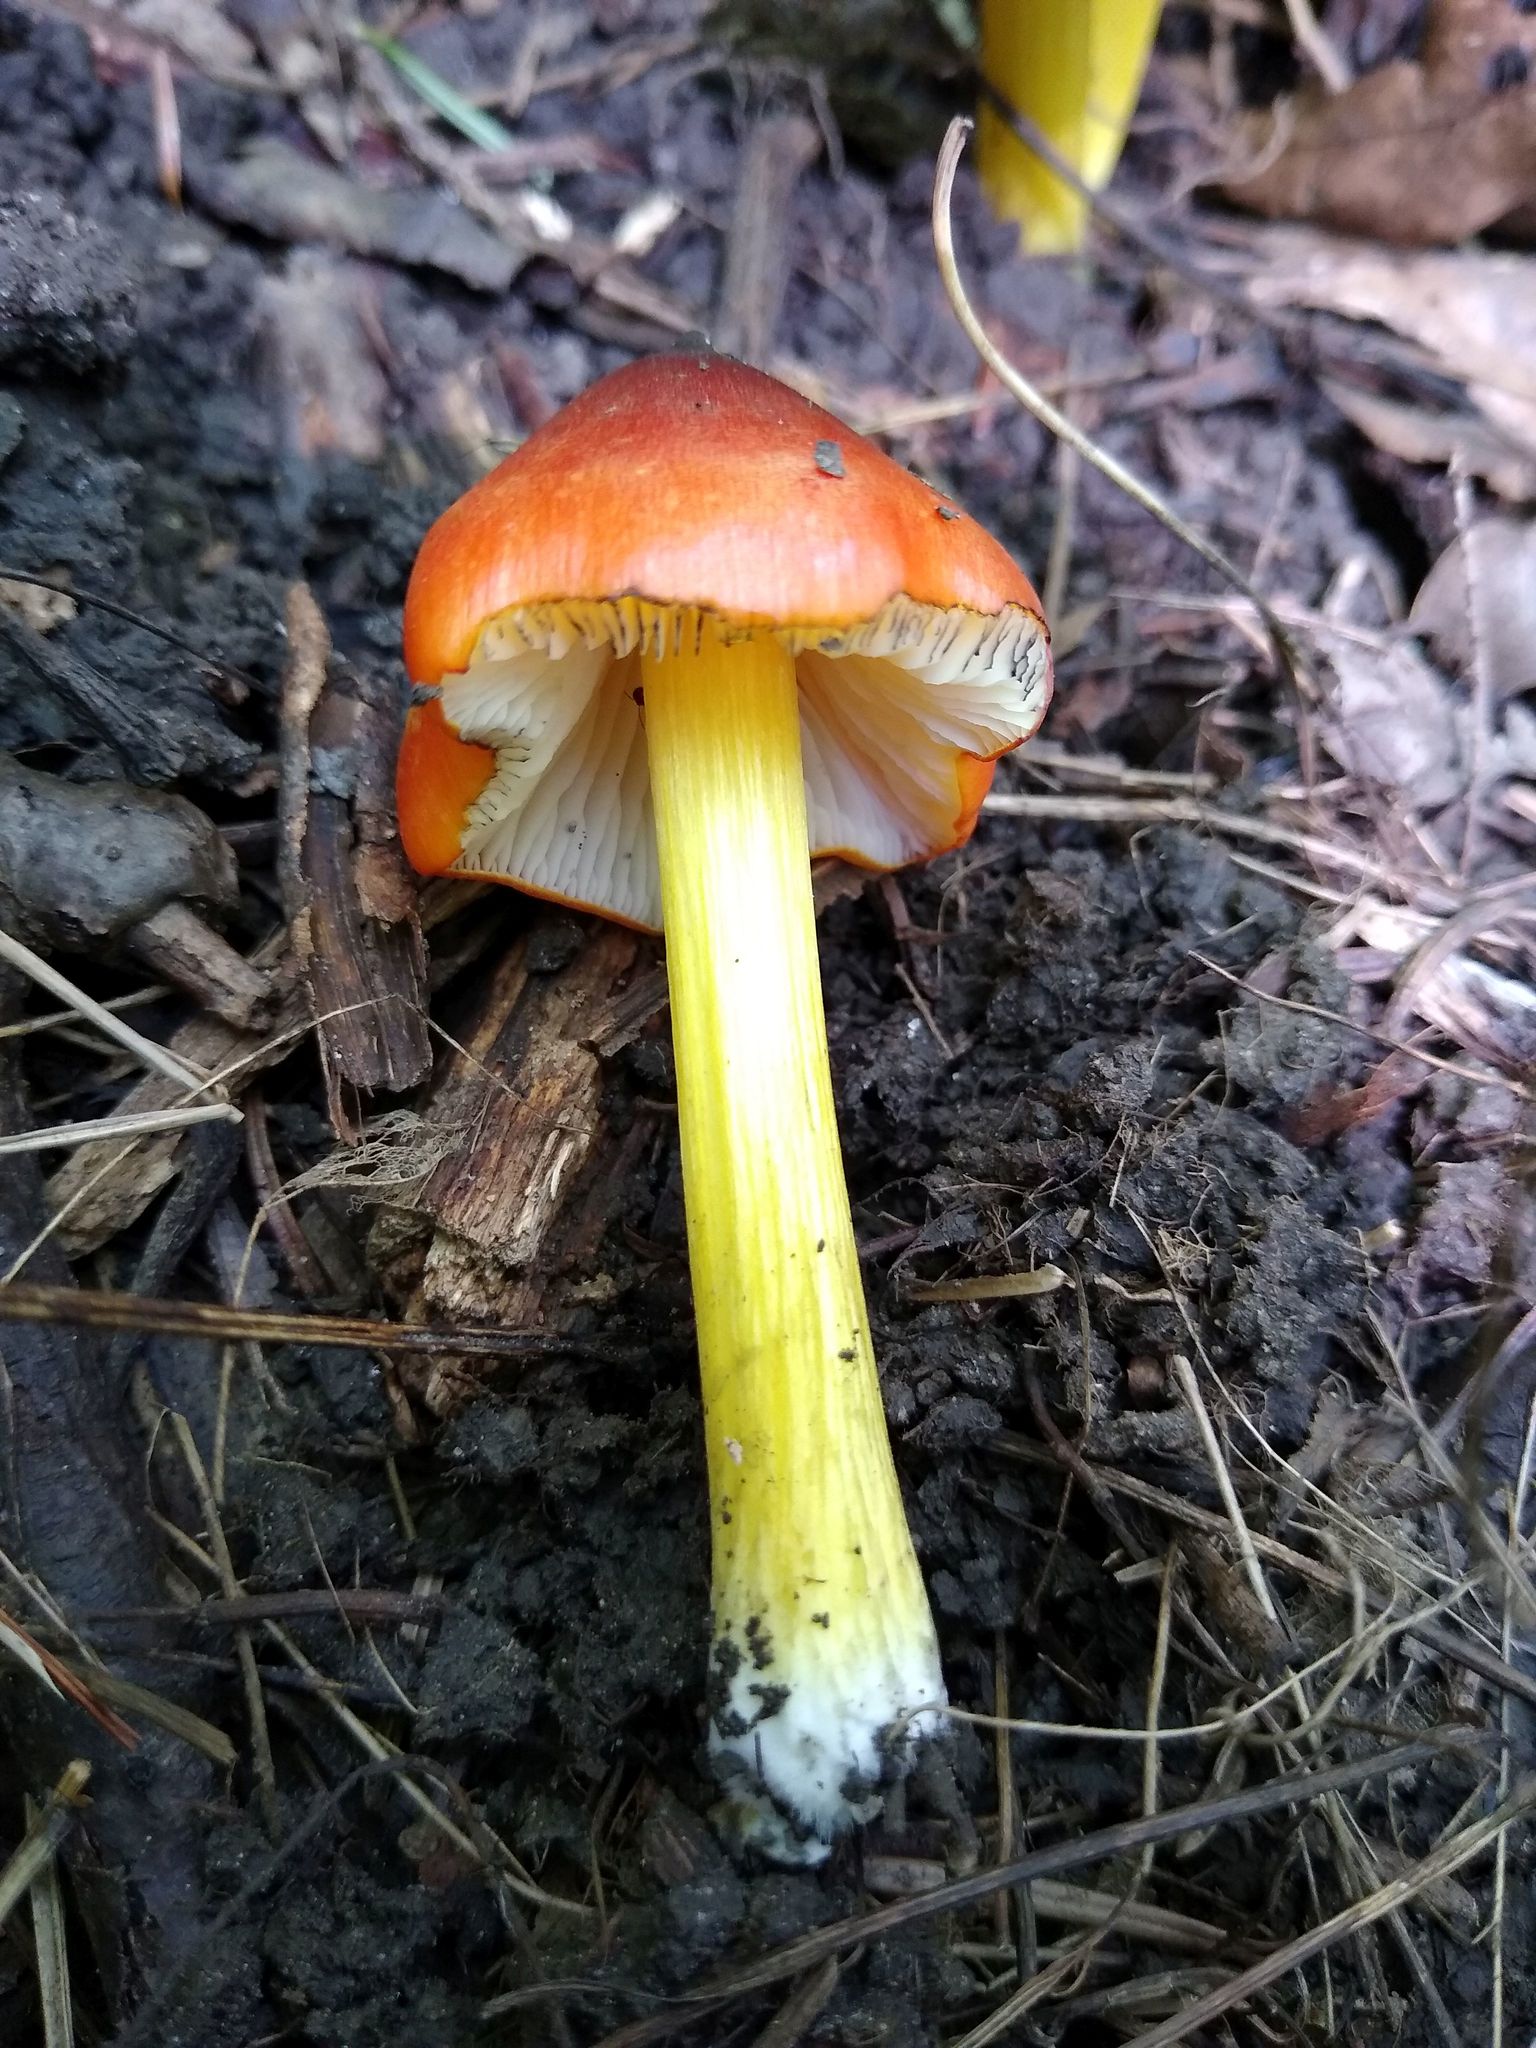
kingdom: Fungi
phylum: Basidiomycota
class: Agaricomycetes
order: Agaricales
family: Hygrophoraceae
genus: Hygrocybe
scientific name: Hygrocybe conica
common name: Blackening wax-cap
